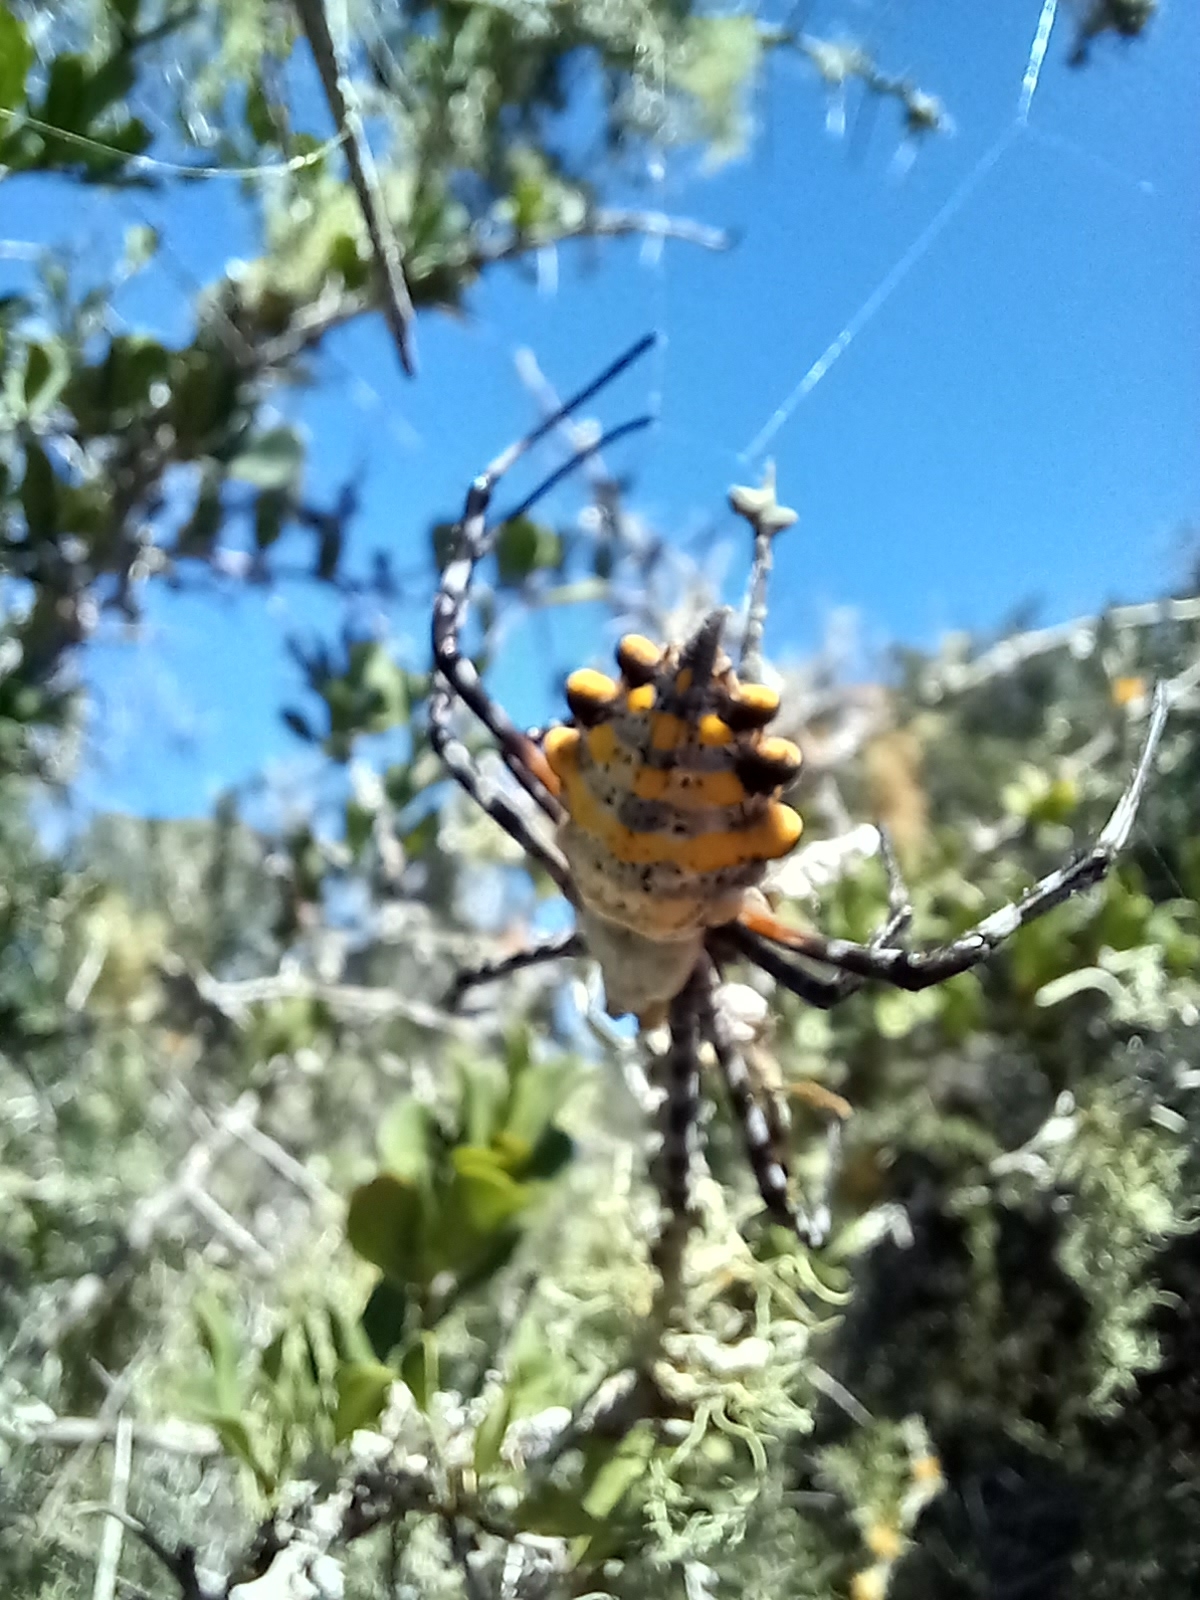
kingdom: Animalia
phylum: Arthropoda
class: Arachnida
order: Araneae
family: Araneidae
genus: Argiope
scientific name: Argiope australis
